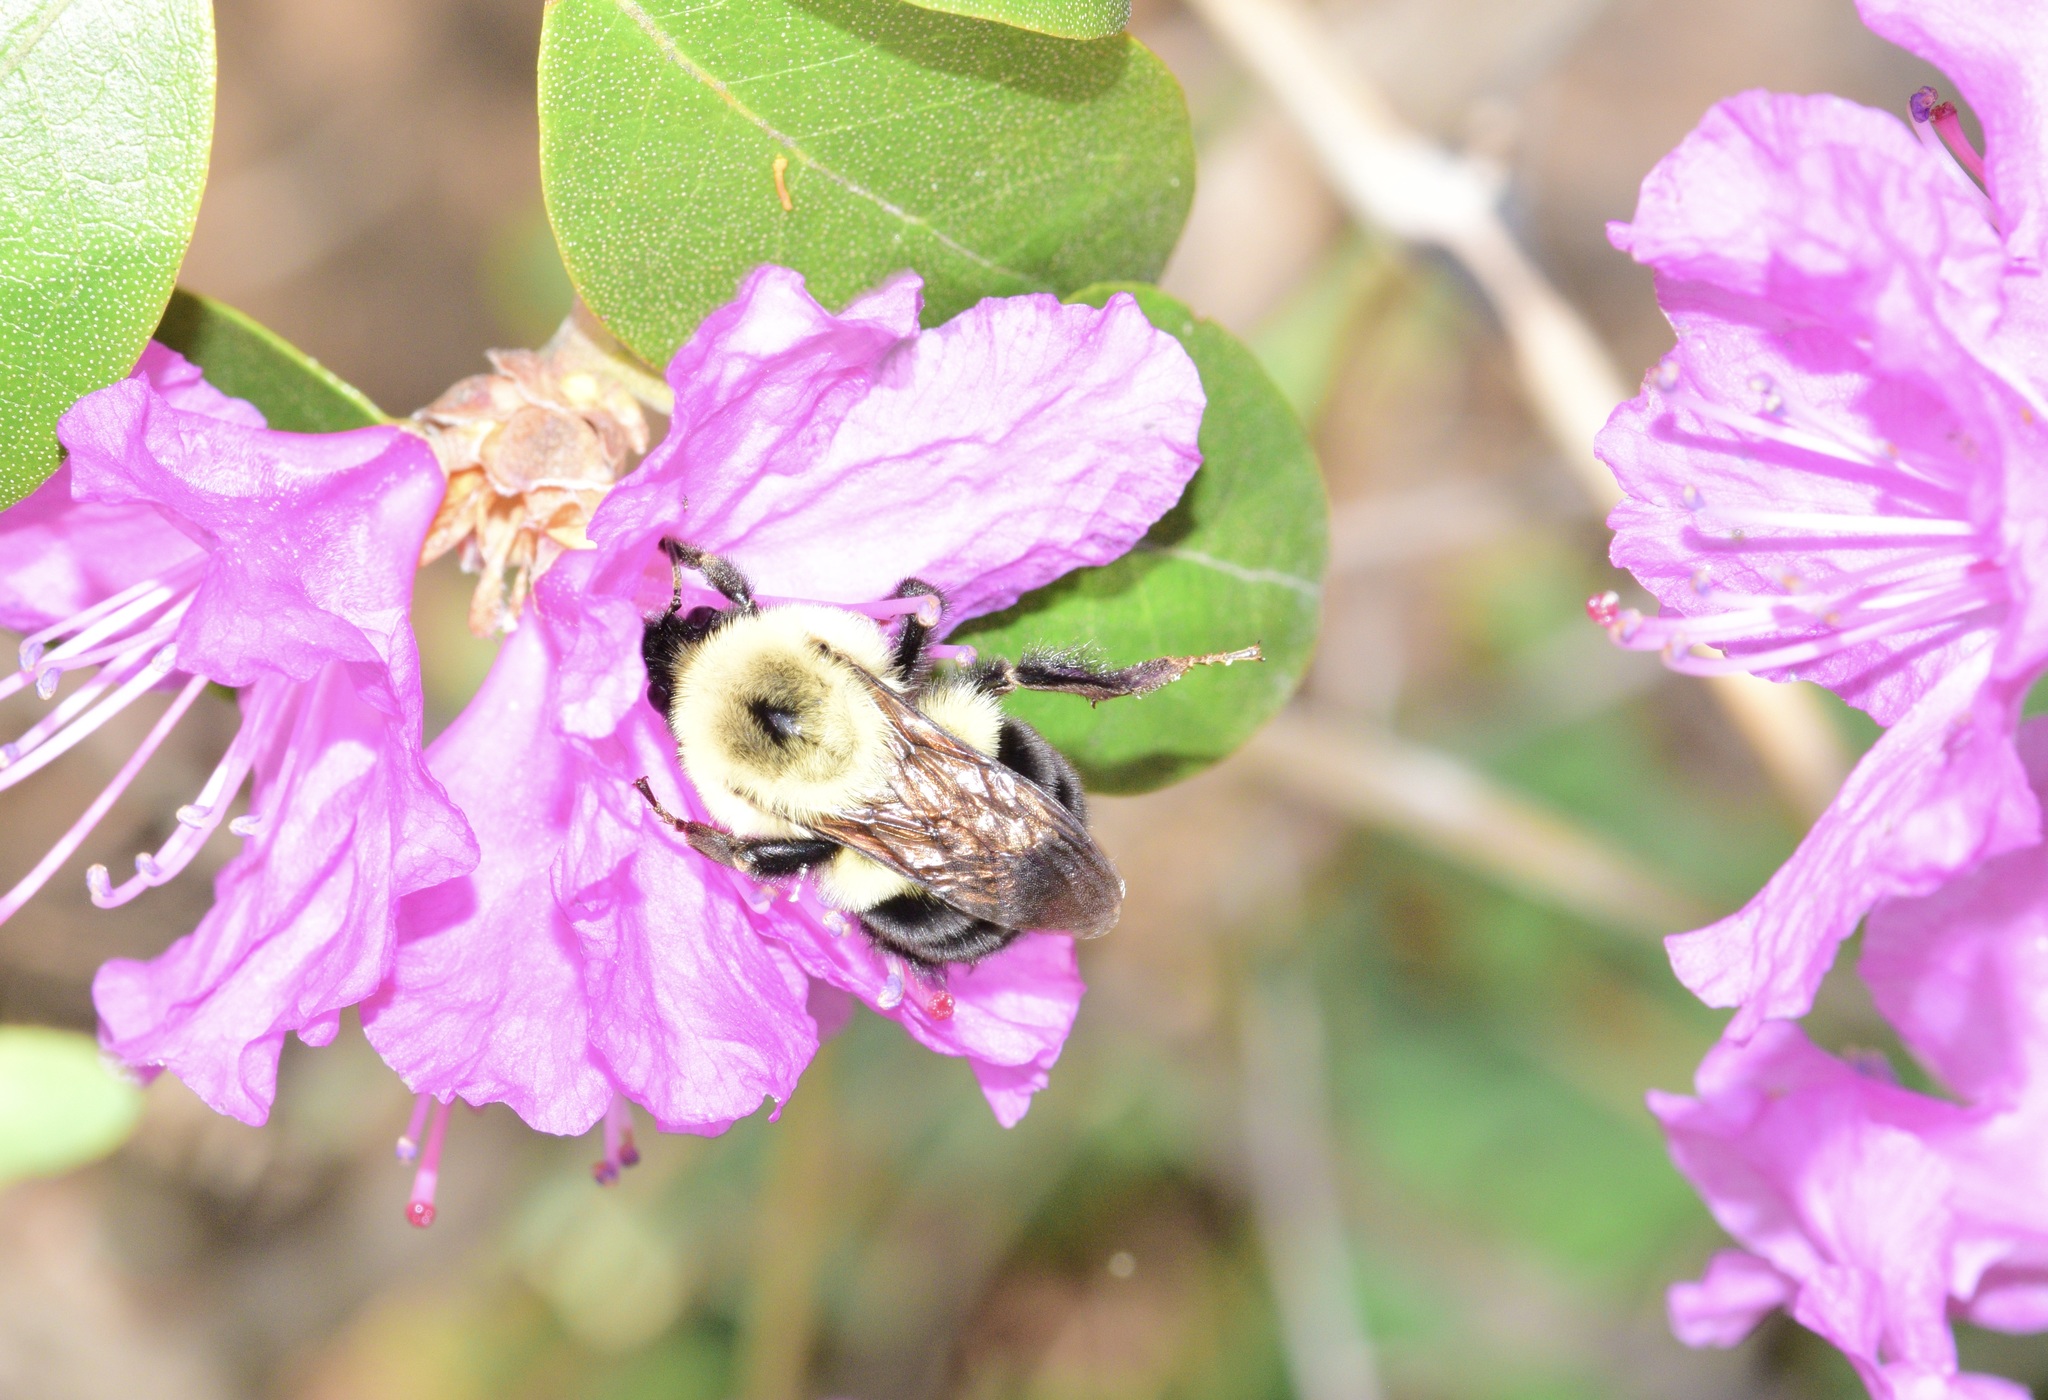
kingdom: Animalia
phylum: Arthropoda
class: Insecta
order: Hymenoptera
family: Apidae
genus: Bombus
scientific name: Bombus bimaculatus
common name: Two-spotted bumble bee
